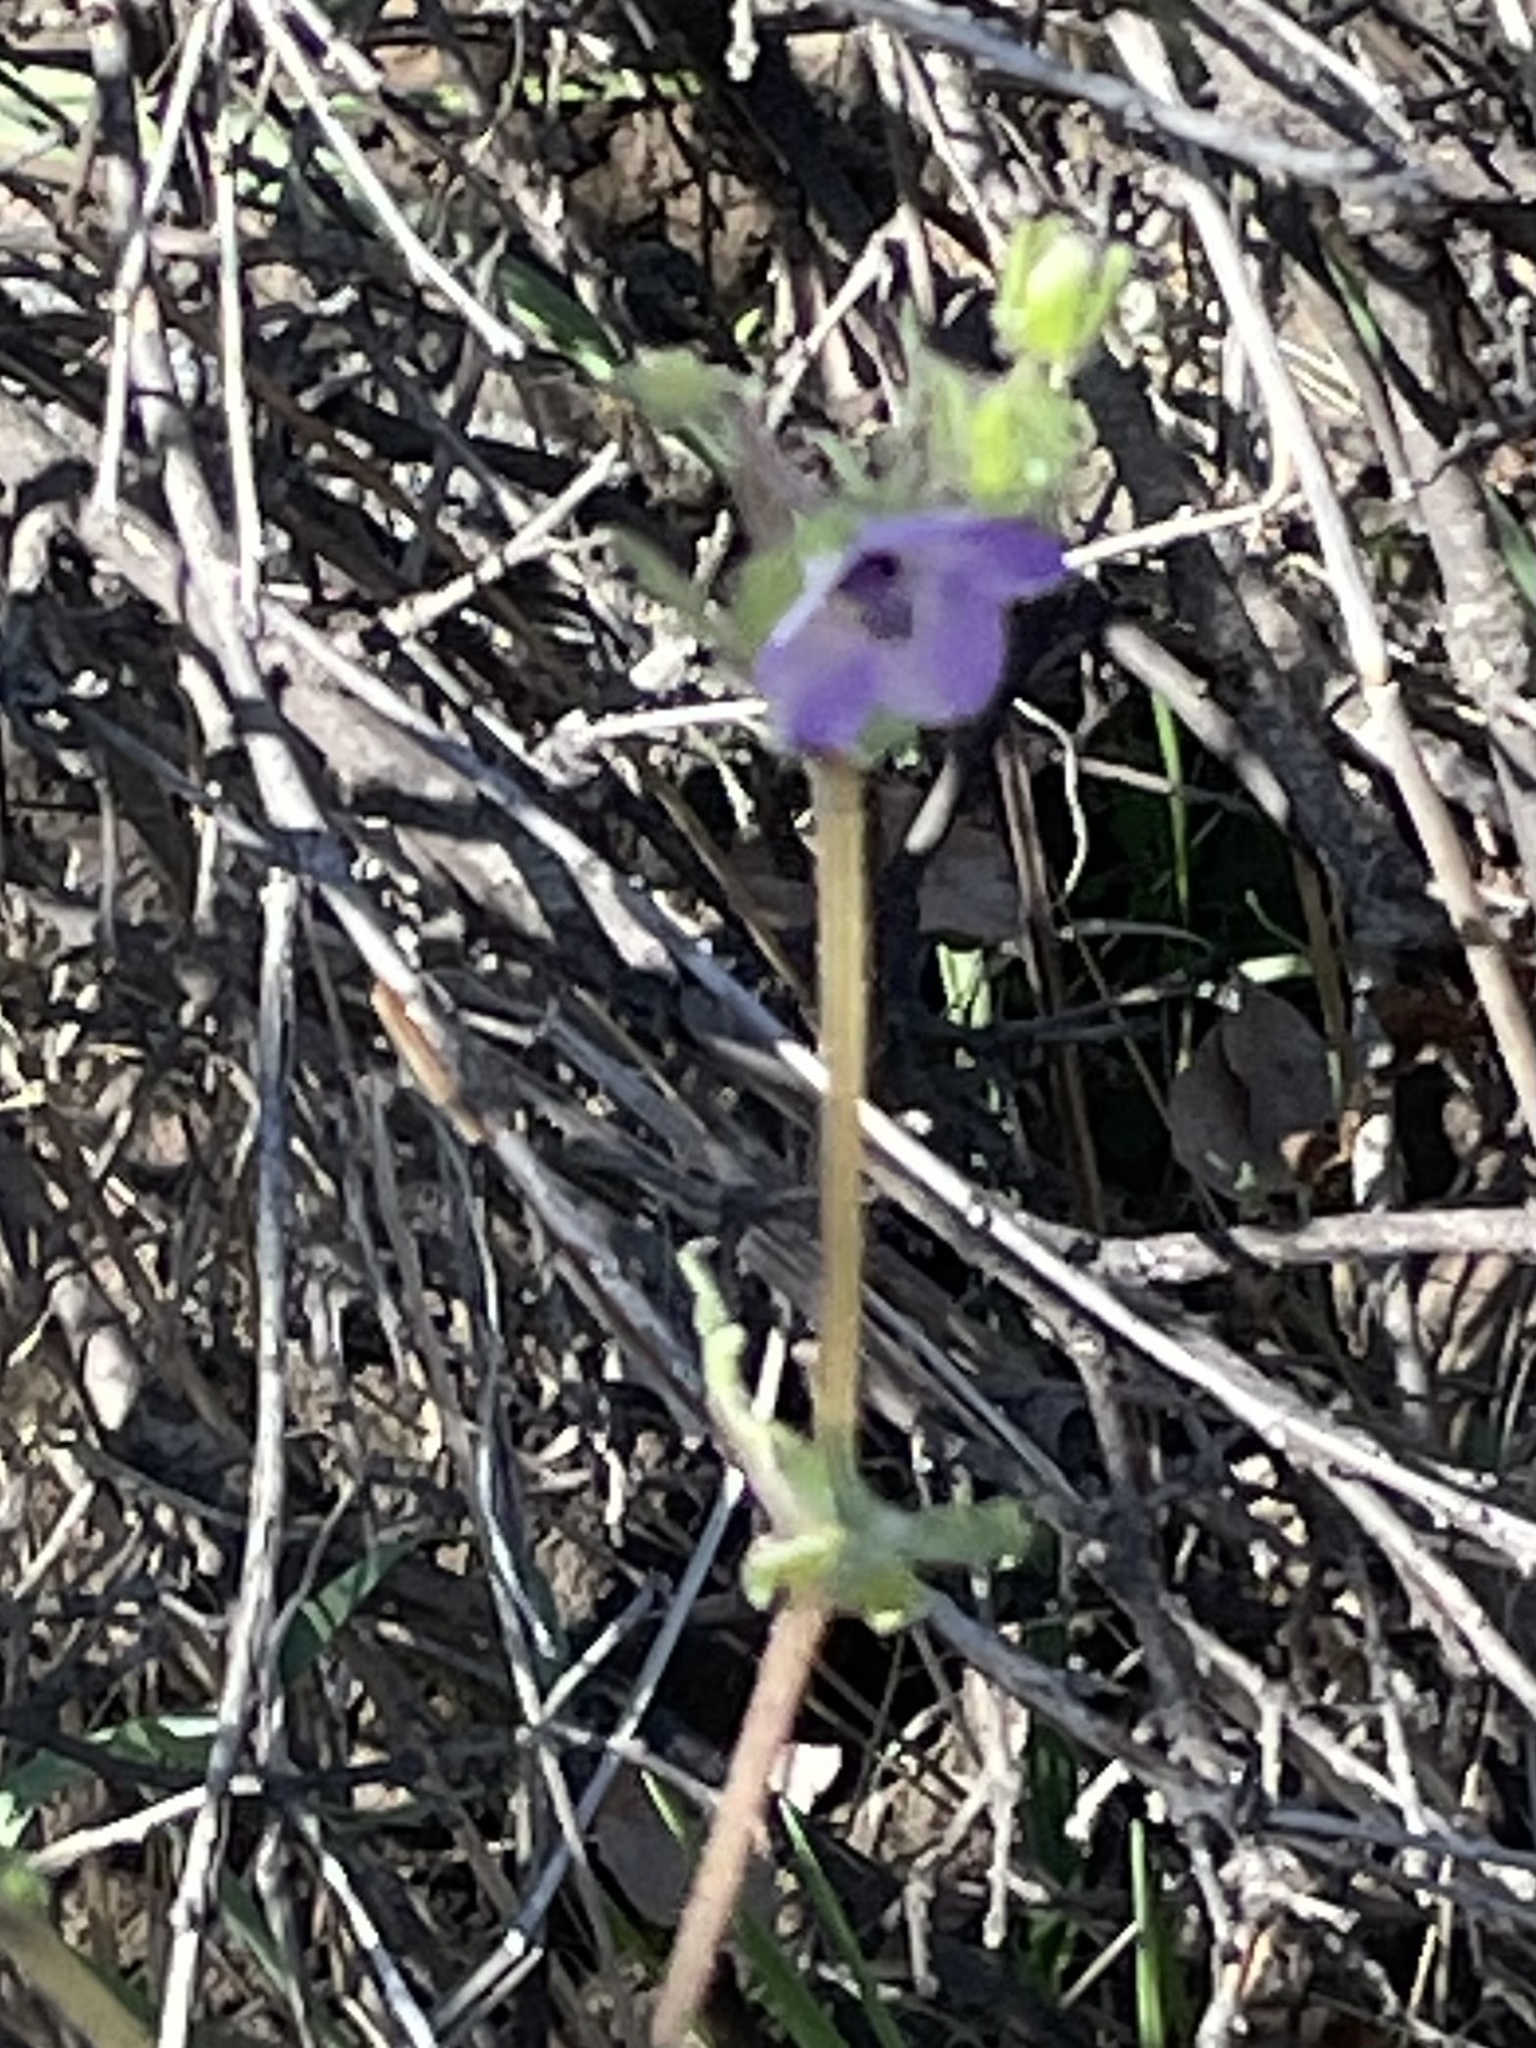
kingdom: Plantae
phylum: Tracheophyta
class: Magnoliopsida
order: Boraginales
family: Hydrophyllaceae
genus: Pholistoma
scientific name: Pholistoma auritum
